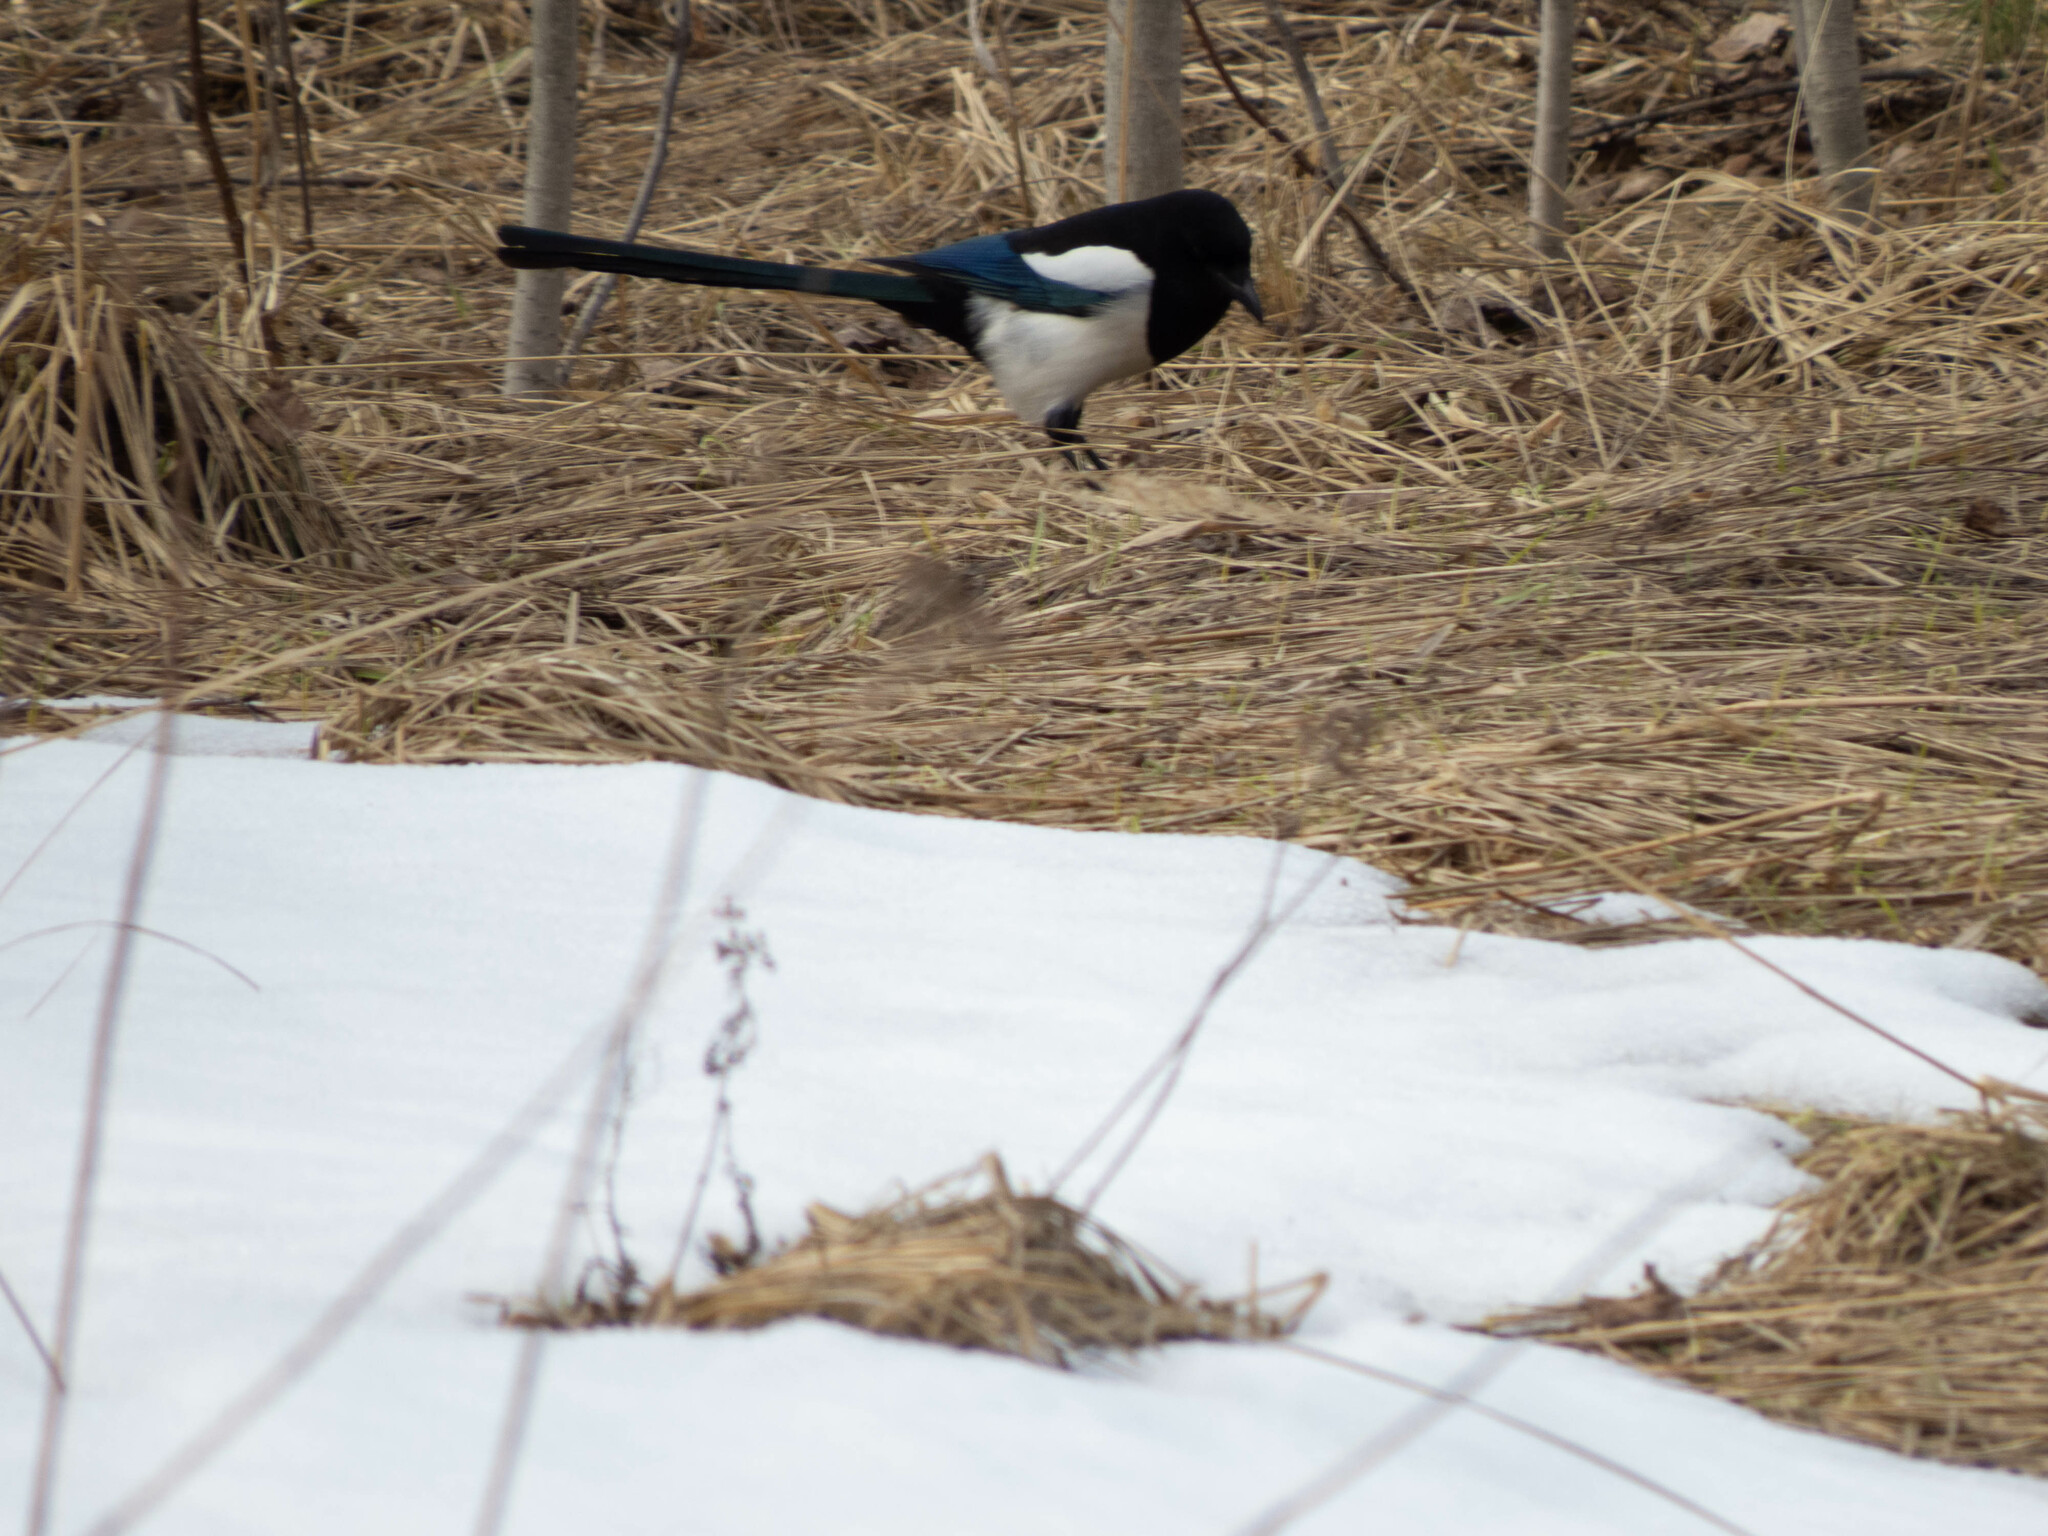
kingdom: Animalia
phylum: Chordata
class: Aves
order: Passeriformes
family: Corvidae
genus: Pica
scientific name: Pica pica
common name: Eurasian magpie
